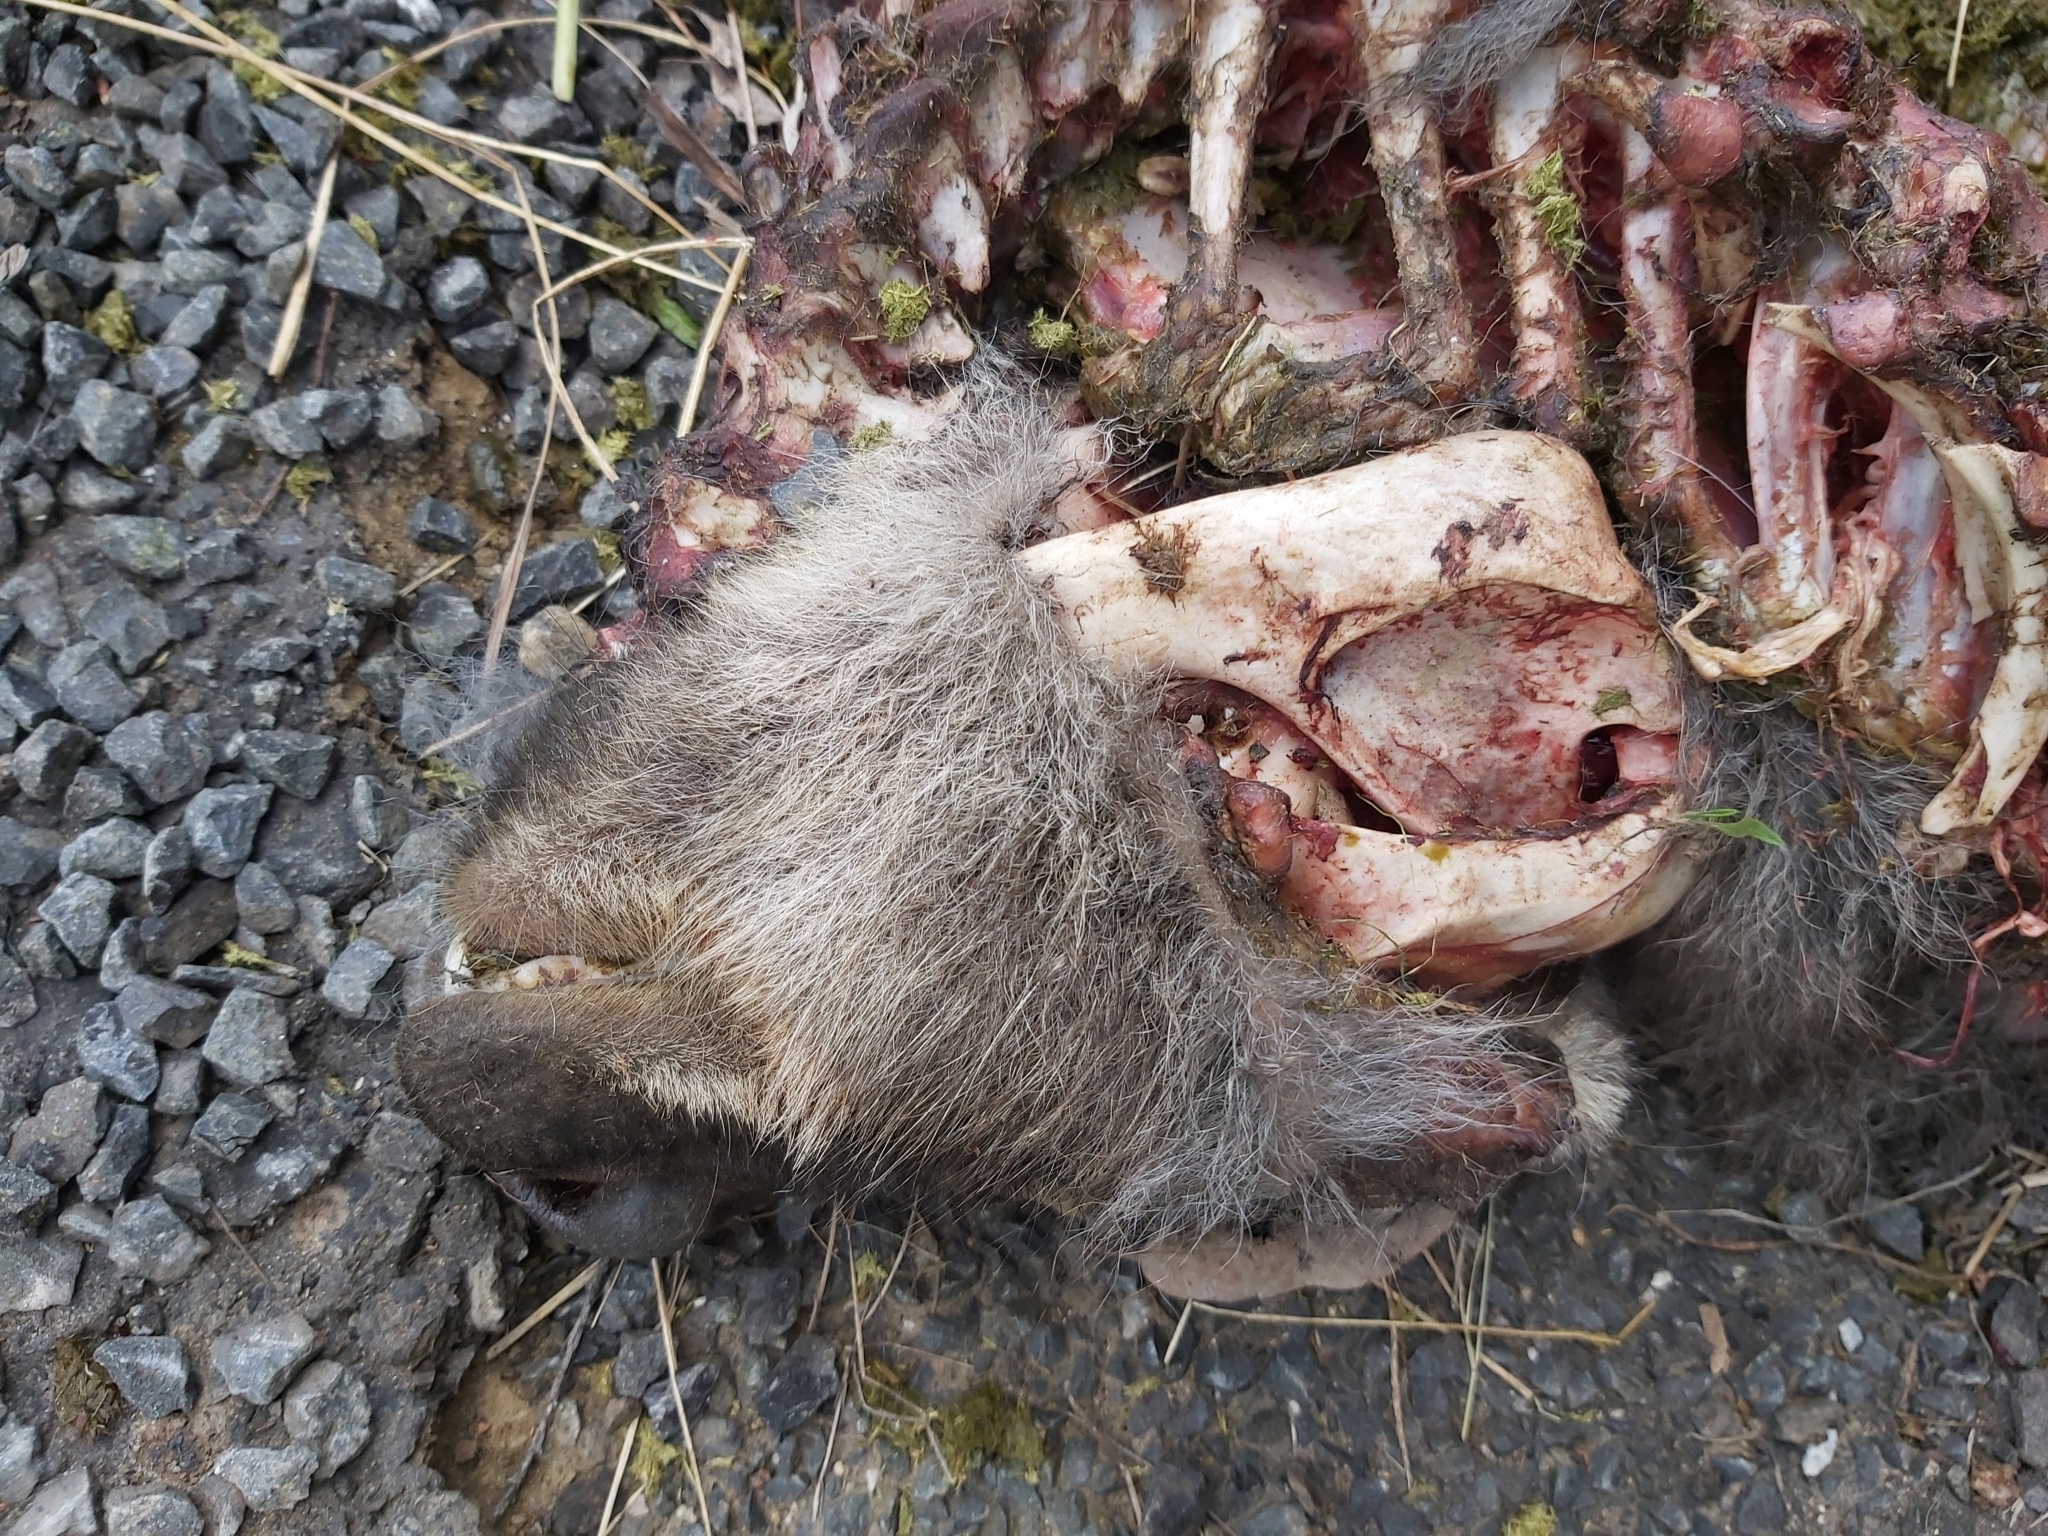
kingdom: Animalia
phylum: Chordata
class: Mammalia
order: Diprotodontia
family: Macropodidae
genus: Macropus
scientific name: Macropus robustus
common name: Eastern wallaroo
